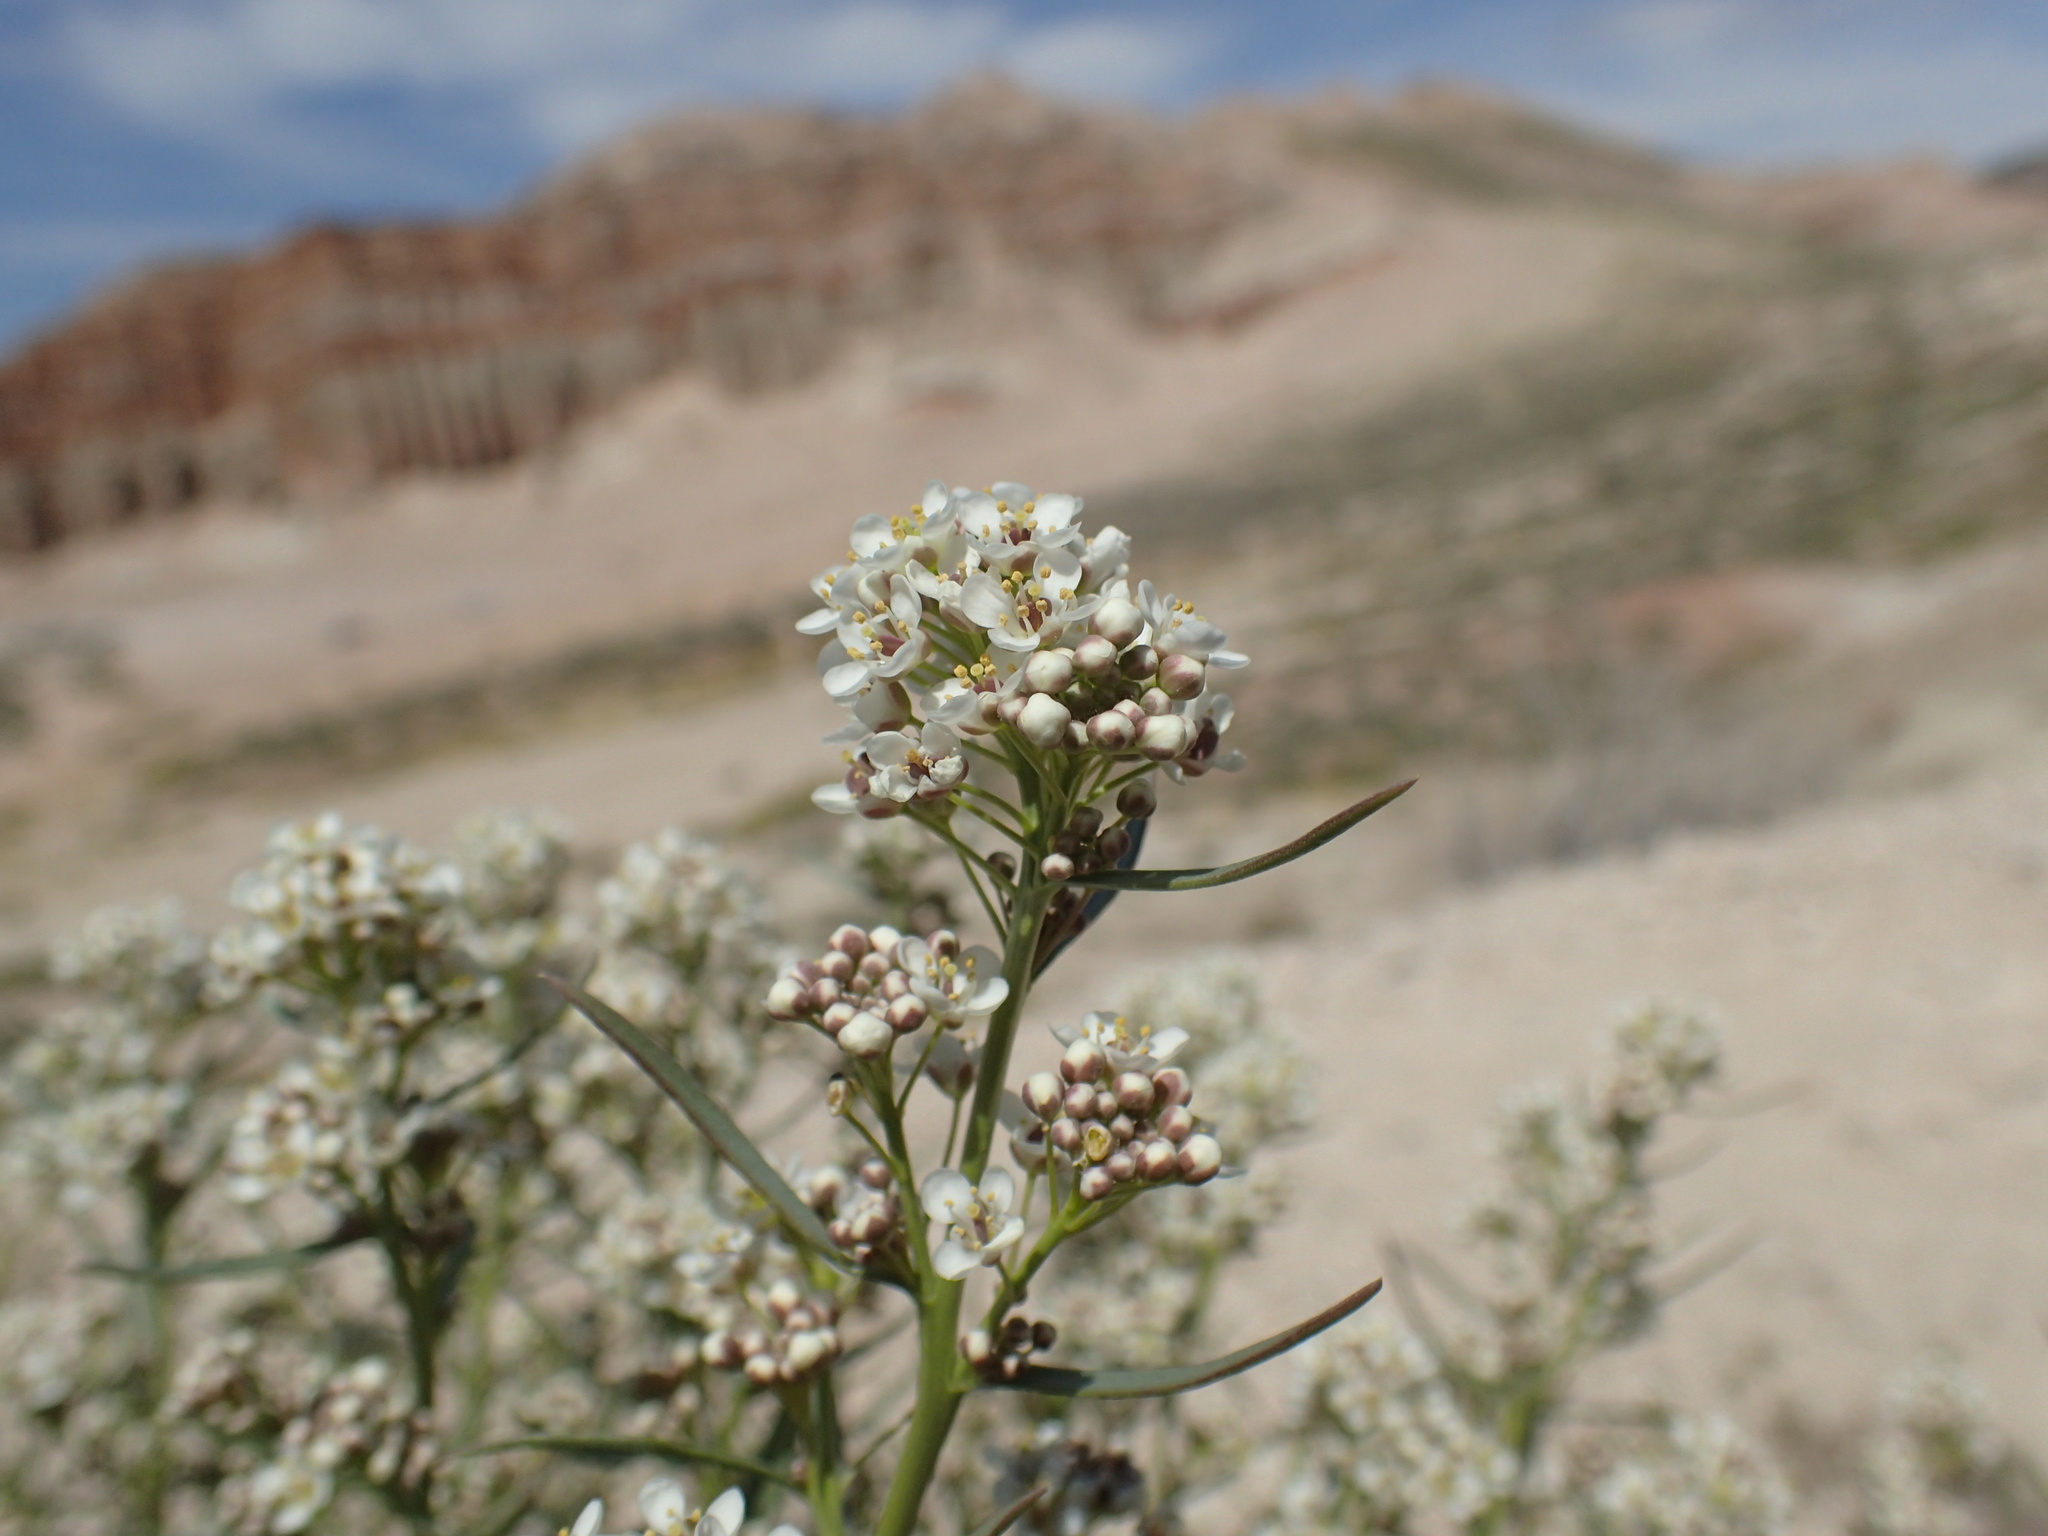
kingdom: Plantae
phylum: Tracheophyta
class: Magnoliopsida
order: Brassicales
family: Brassicaceae
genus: Lepidium
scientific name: Lepidium fremontii
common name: Fremont's pepperwort
